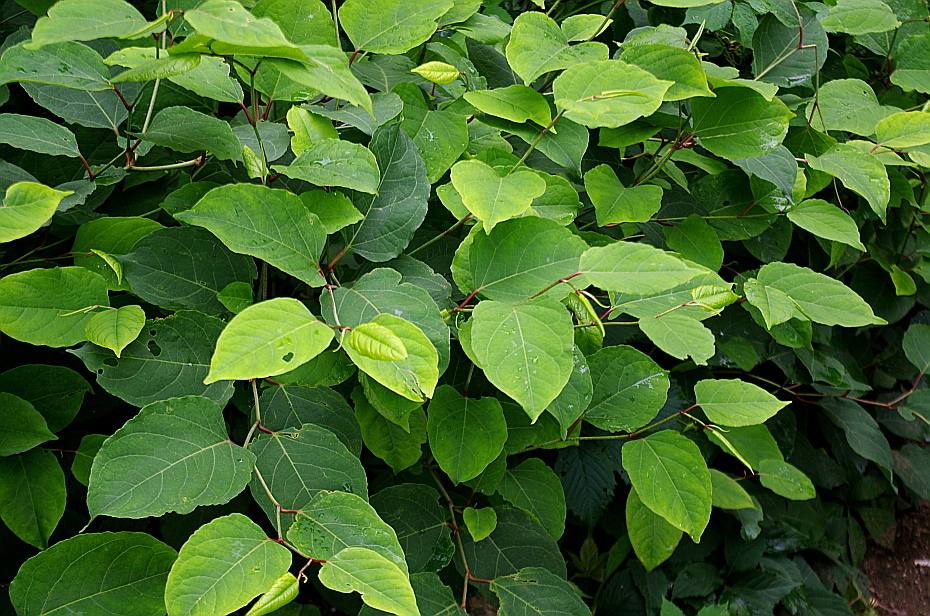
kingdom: Plantae
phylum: Tracheophyta
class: Magnoliopsida
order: Caryophyllales
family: Polygonaceae
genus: Reynoutria
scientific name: Reynoutria bohemica
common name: Bohemian knotweed
